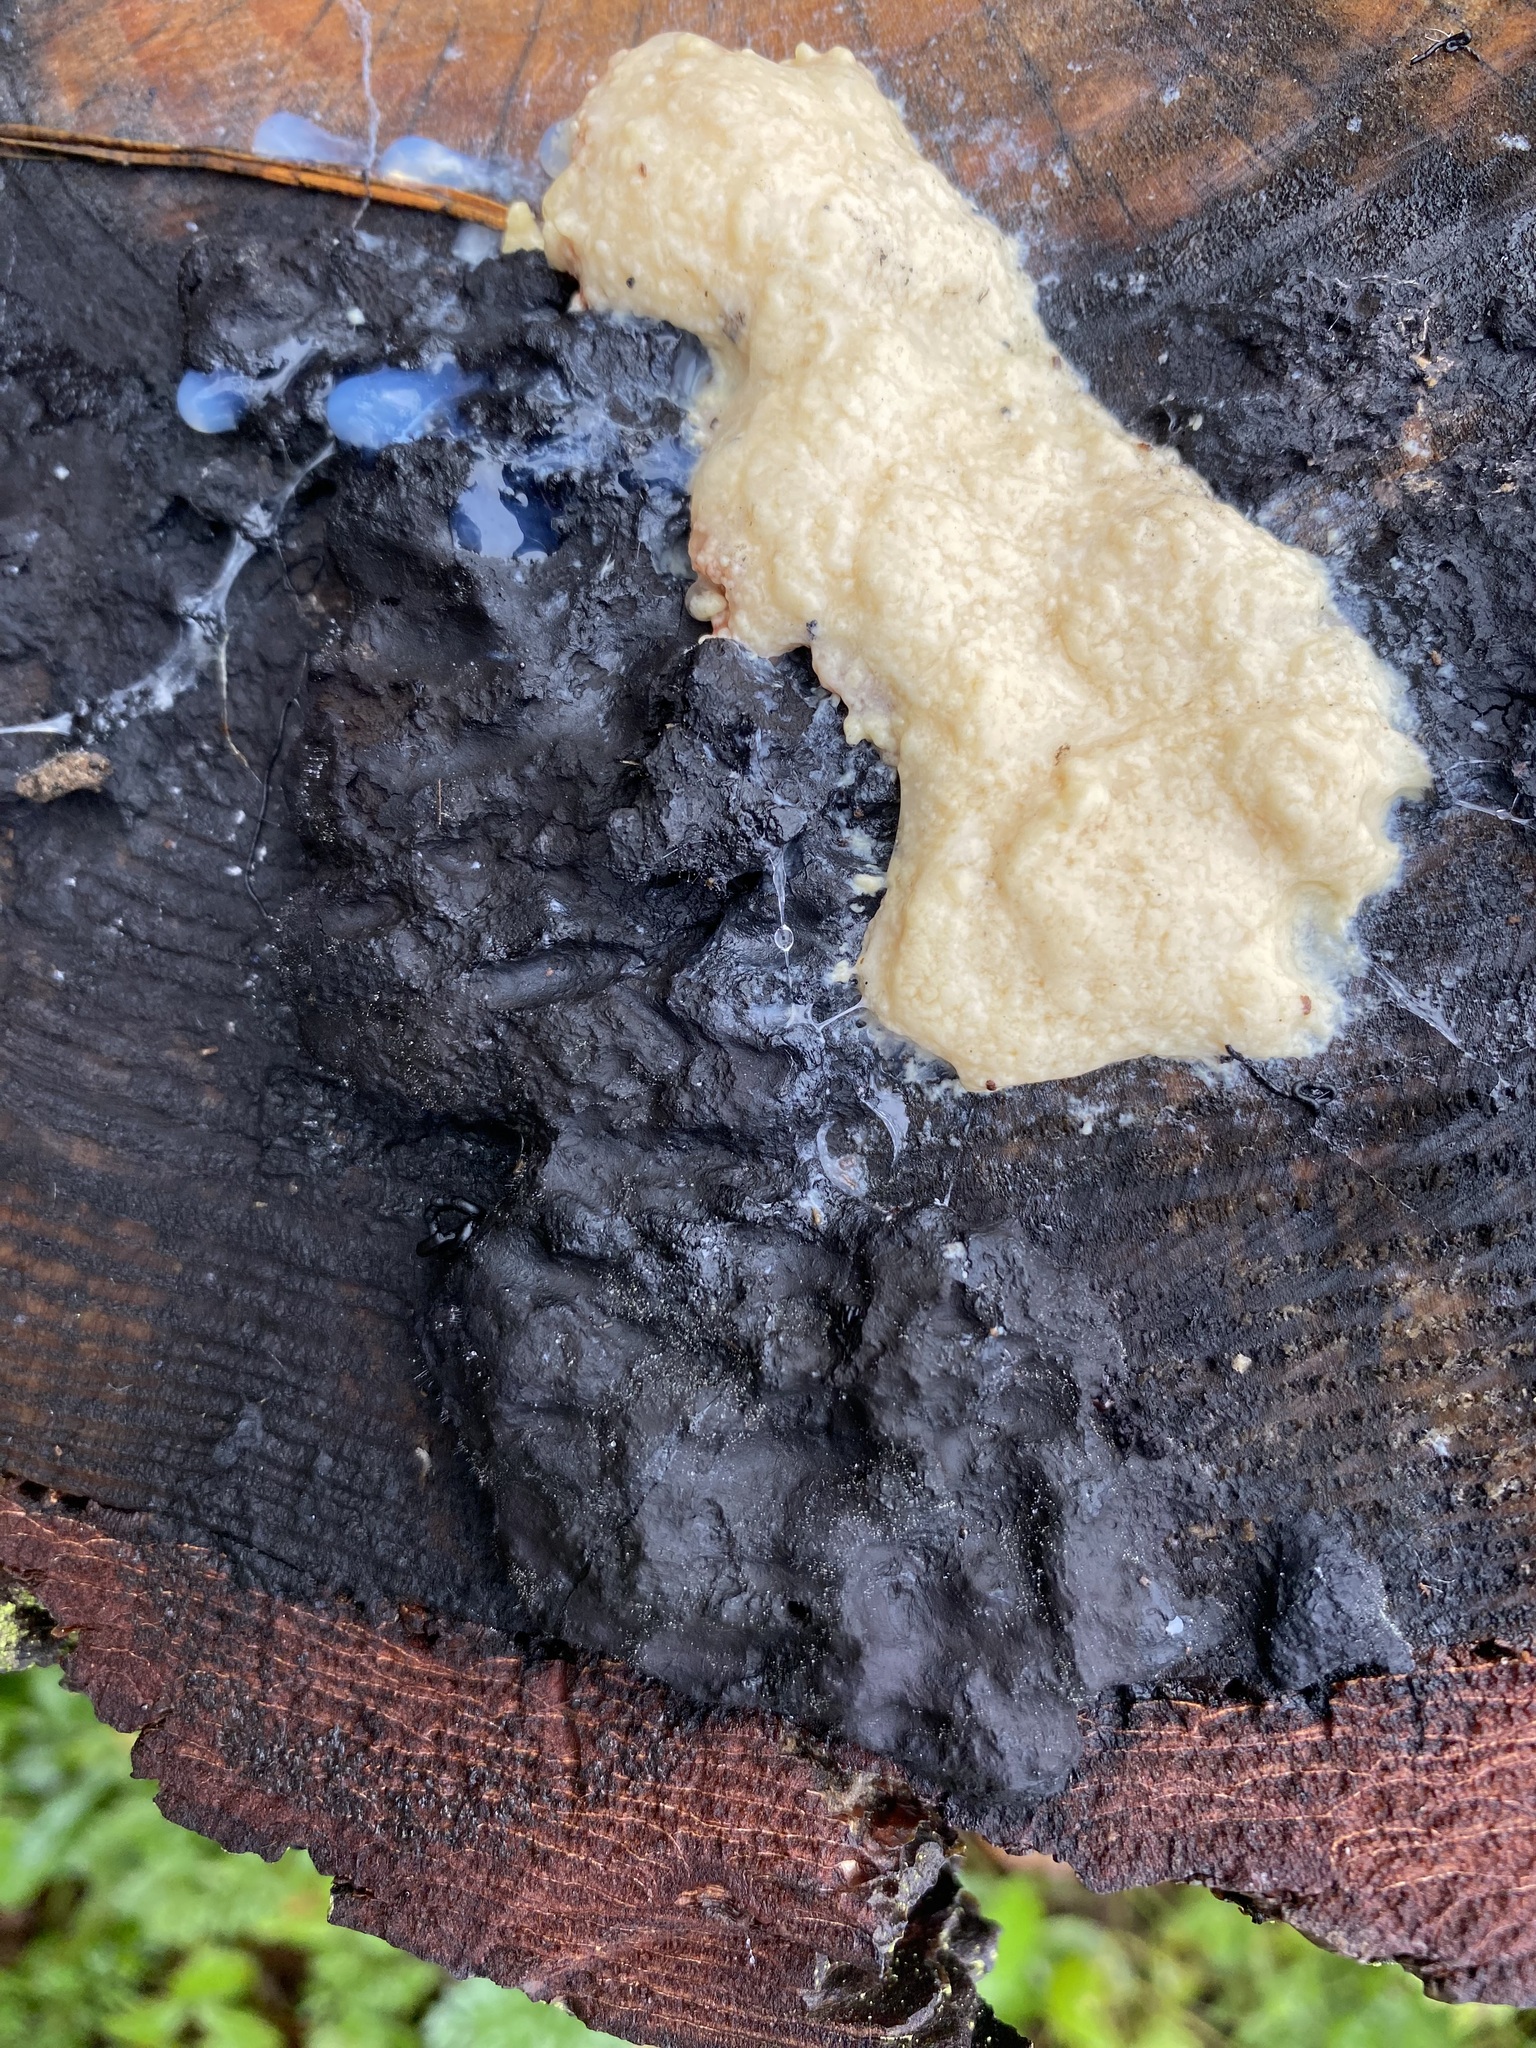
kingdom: Protozoa
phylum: Mycetozoa
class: Myxomycetes
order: Stemonitidales
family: Stemonitidaceae
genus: Brefeldia
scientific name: Brefeldia maxima
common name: Tapioca slime mold
